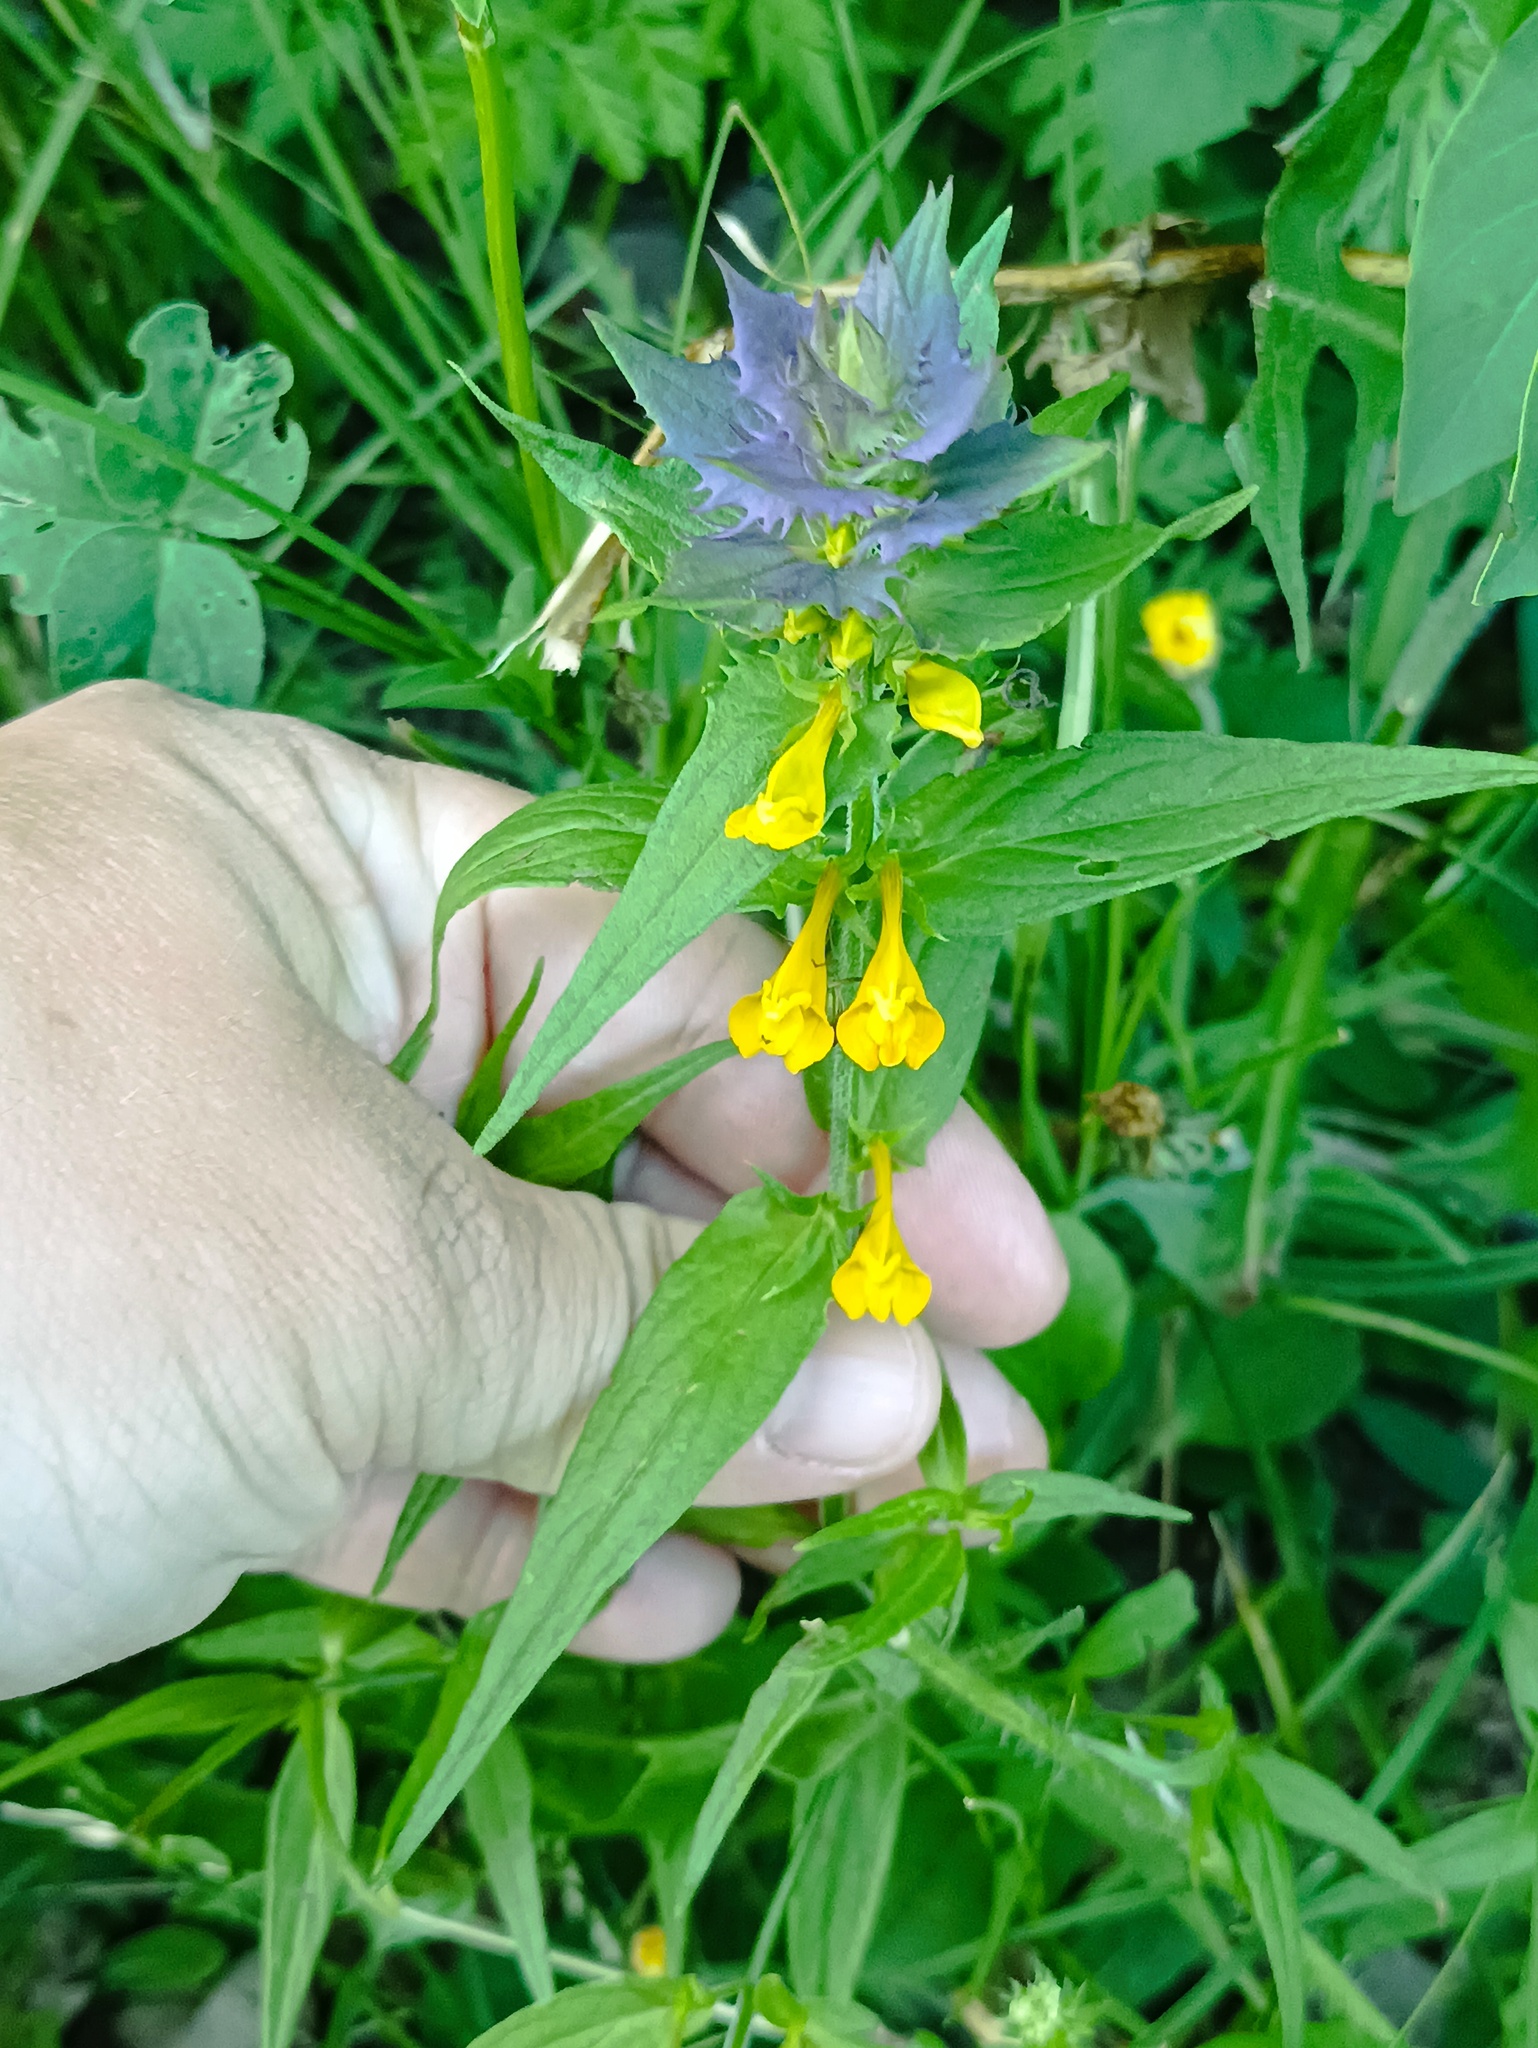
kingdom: Plantae
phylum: Tracheophyta
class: Magnoliopsida
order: Lamiales
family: Orobanchaceae
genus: Melampyrum
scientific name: Melampyrum nemorosum
